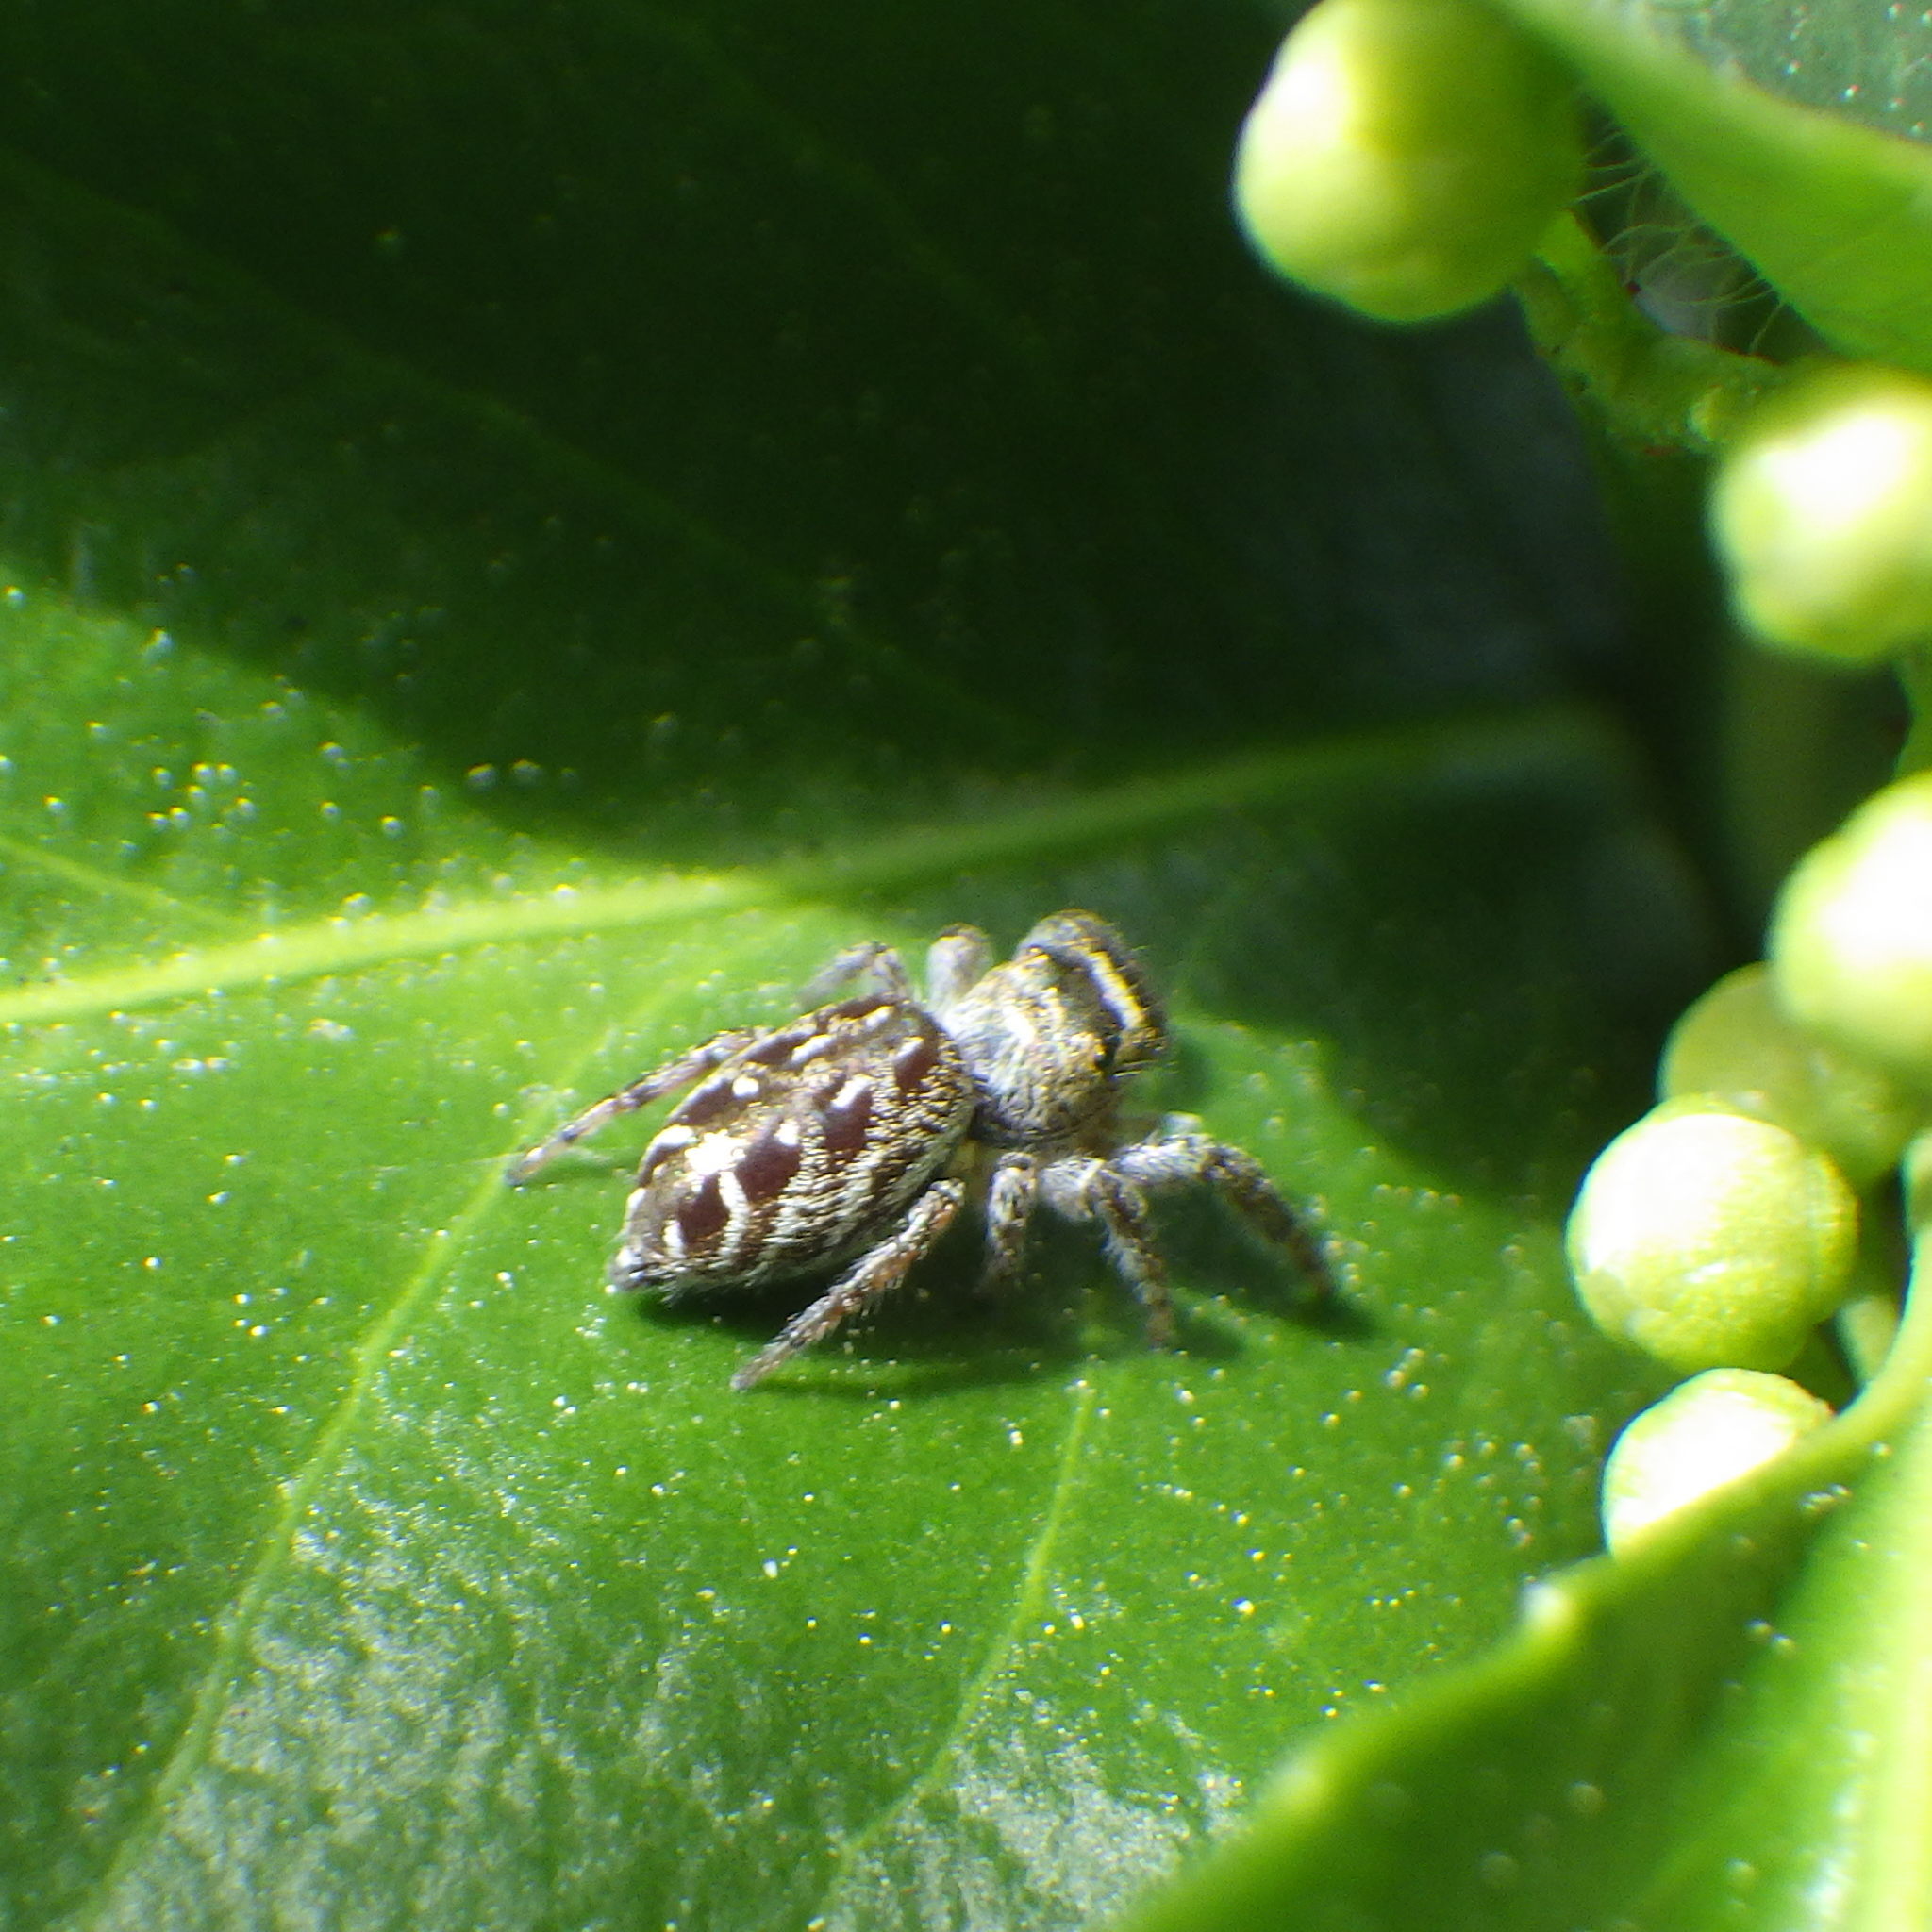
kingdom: Animalia
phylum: Arthropoda
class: Arachnida
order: Araneae
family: Salticidae
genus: Eris
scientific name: Eris militaris
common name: Bronze jumper
